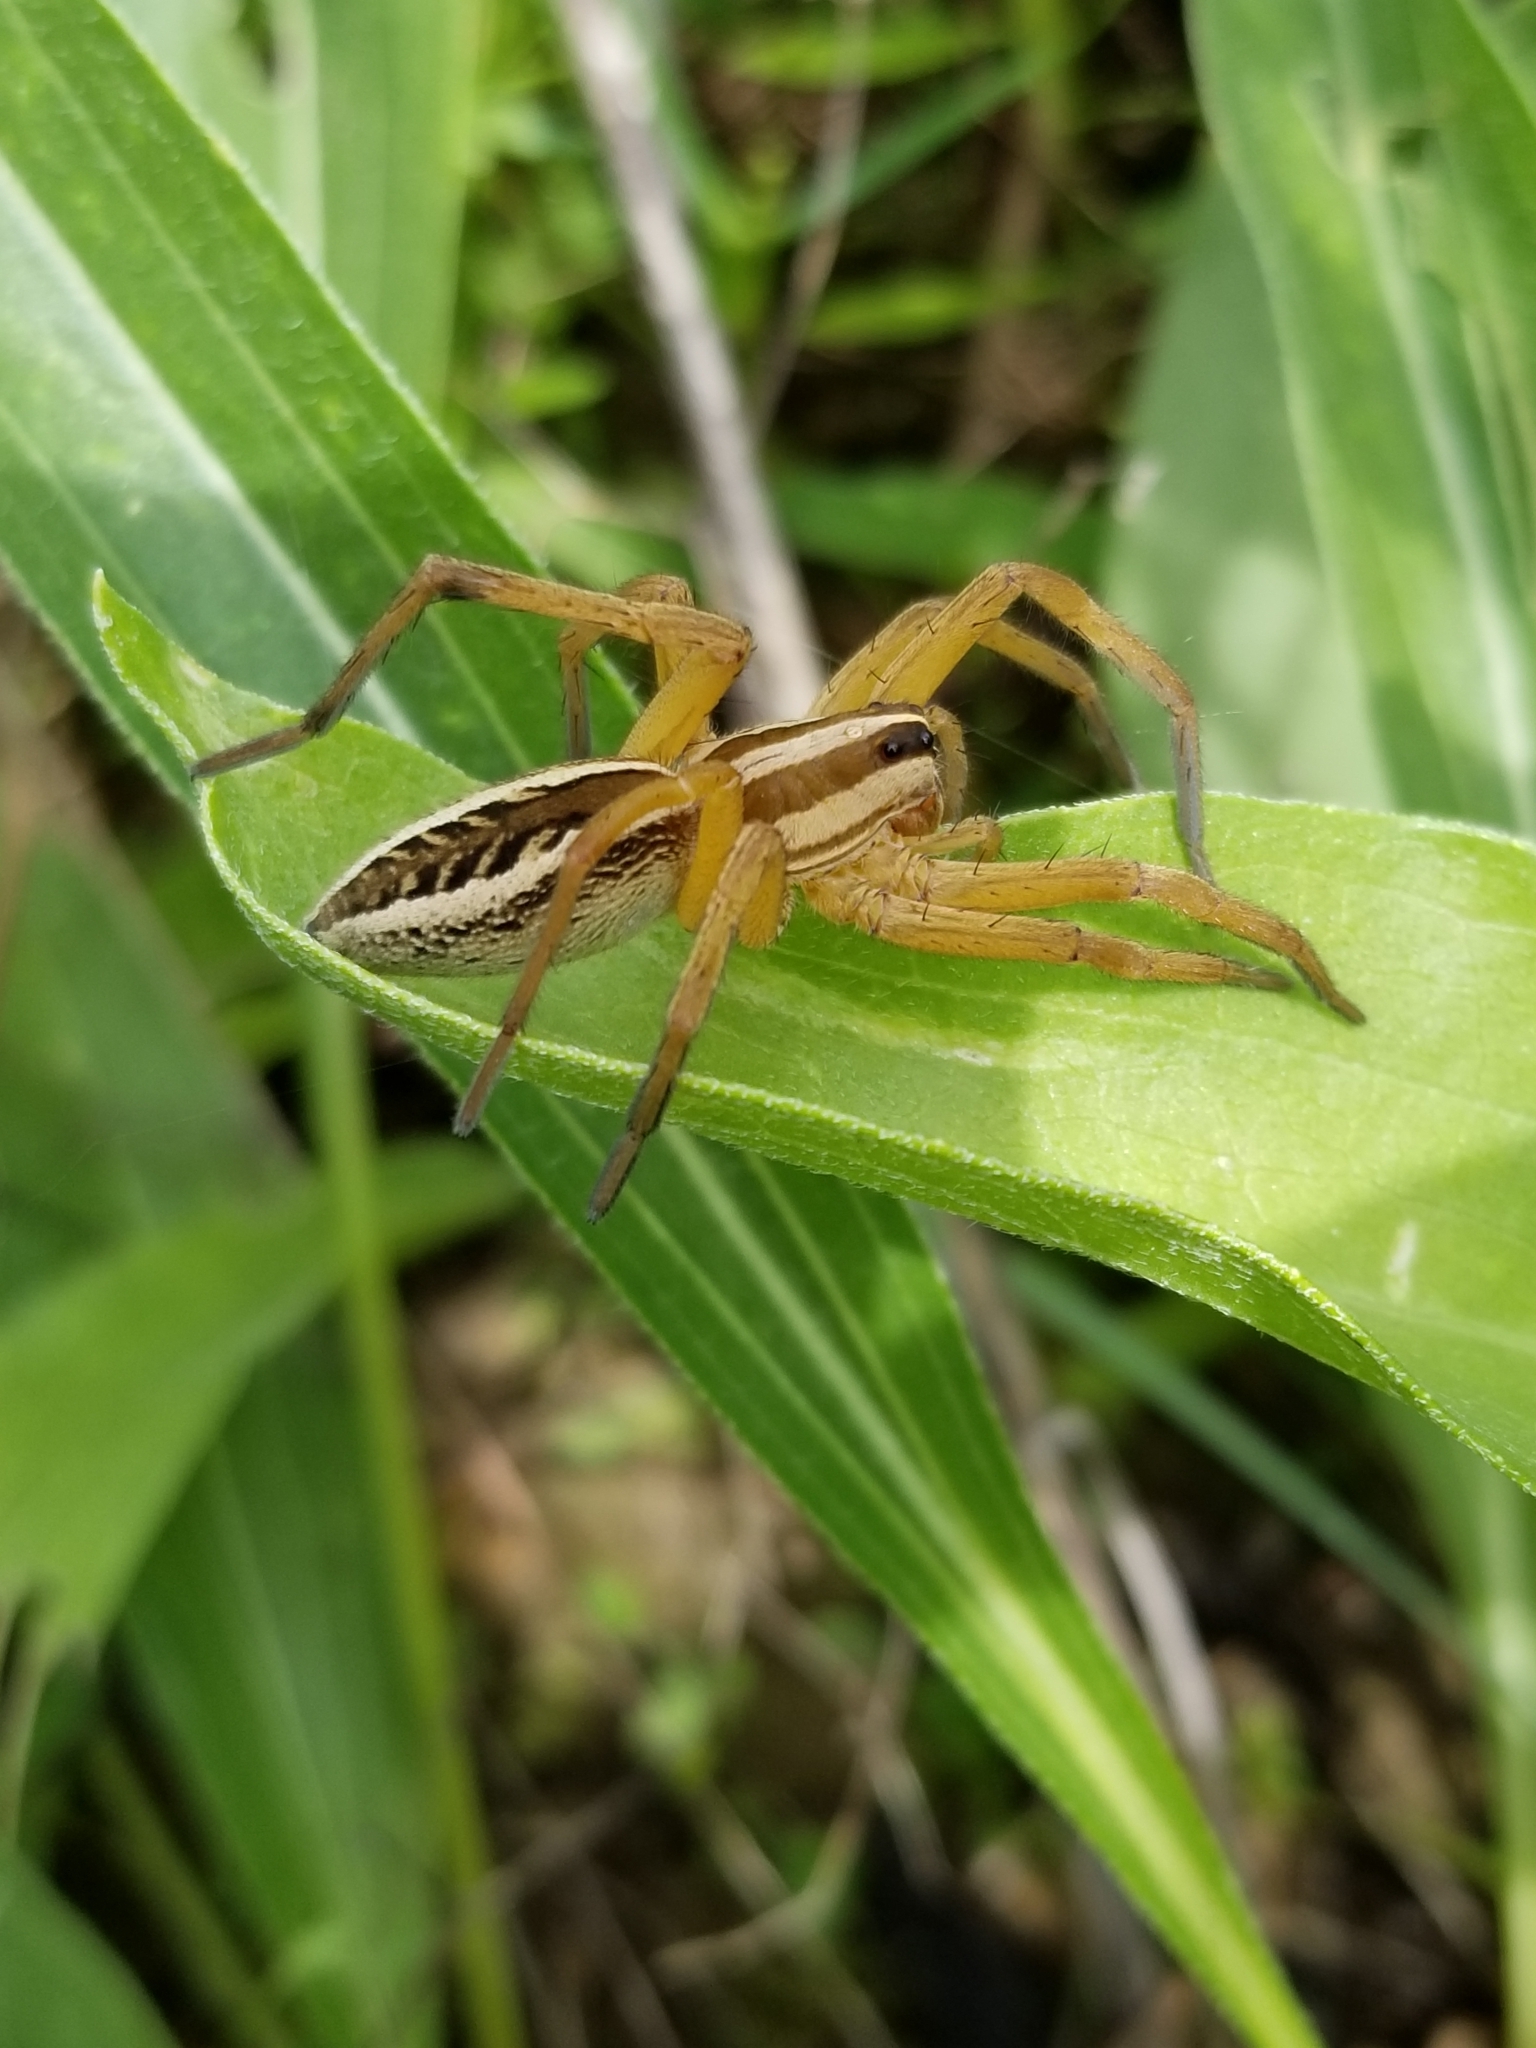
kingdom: Animalia
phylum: Arthropoda
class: Arachnida
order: Araneae
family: Lycosidae
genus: Rabidosa
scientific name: Rabidosa rabida
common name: Rabid wolf spider
